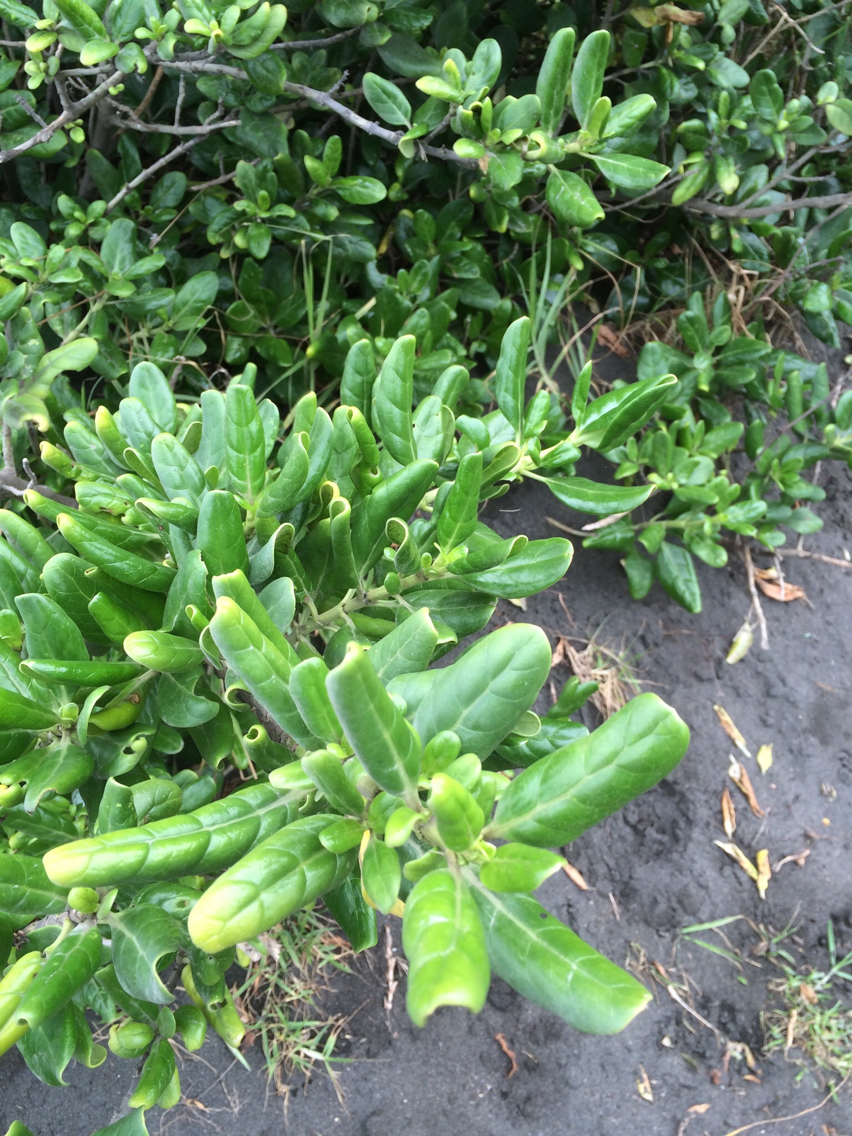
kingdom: Plantae
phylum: Tracheophyta
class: Magnoliopsida
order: Gentianales
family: Rubiaceae
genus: Coprosma
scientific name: Coprosma repens
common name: Tree bedstraw
